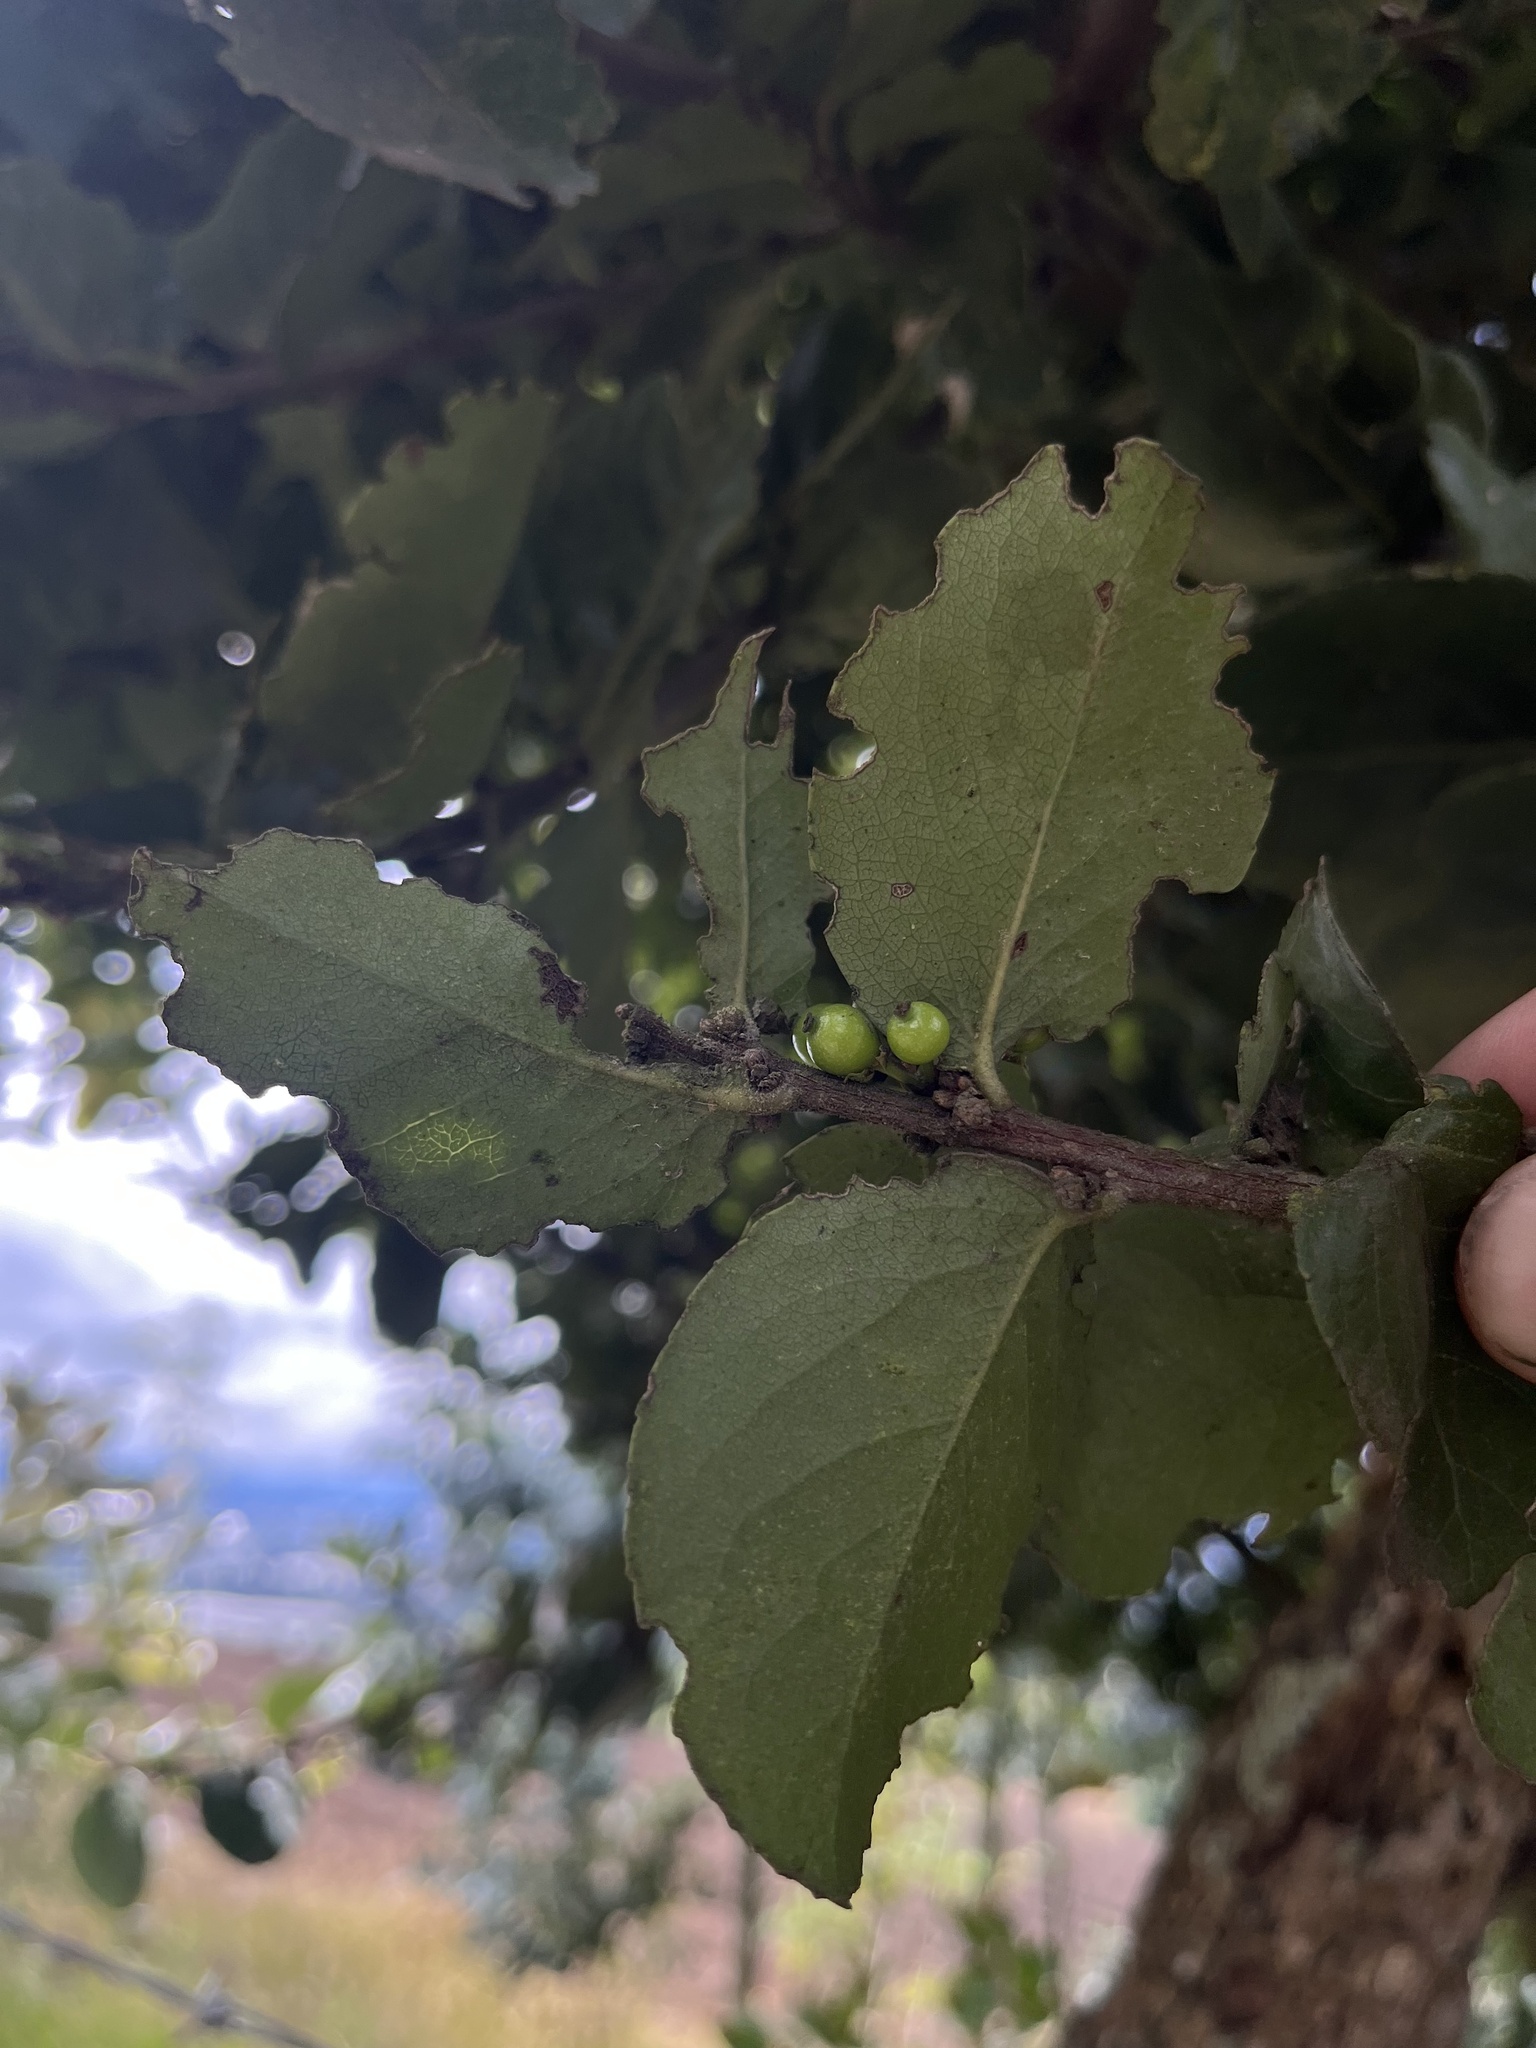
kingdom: Plantae
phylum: Tracheophyta
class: Magnoliopsida
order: Malpighiales
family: Salicaceae
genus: Xylosma
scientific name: Xylosma spiculifera
